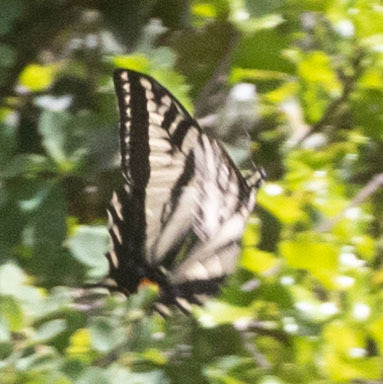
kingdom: Animalia
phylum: Arthropoda
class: Insecta
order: Lepidoptera
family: Papilionidae
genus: Papilio
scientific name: Papilio eurymedon
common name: Pale tiger swallowtail
